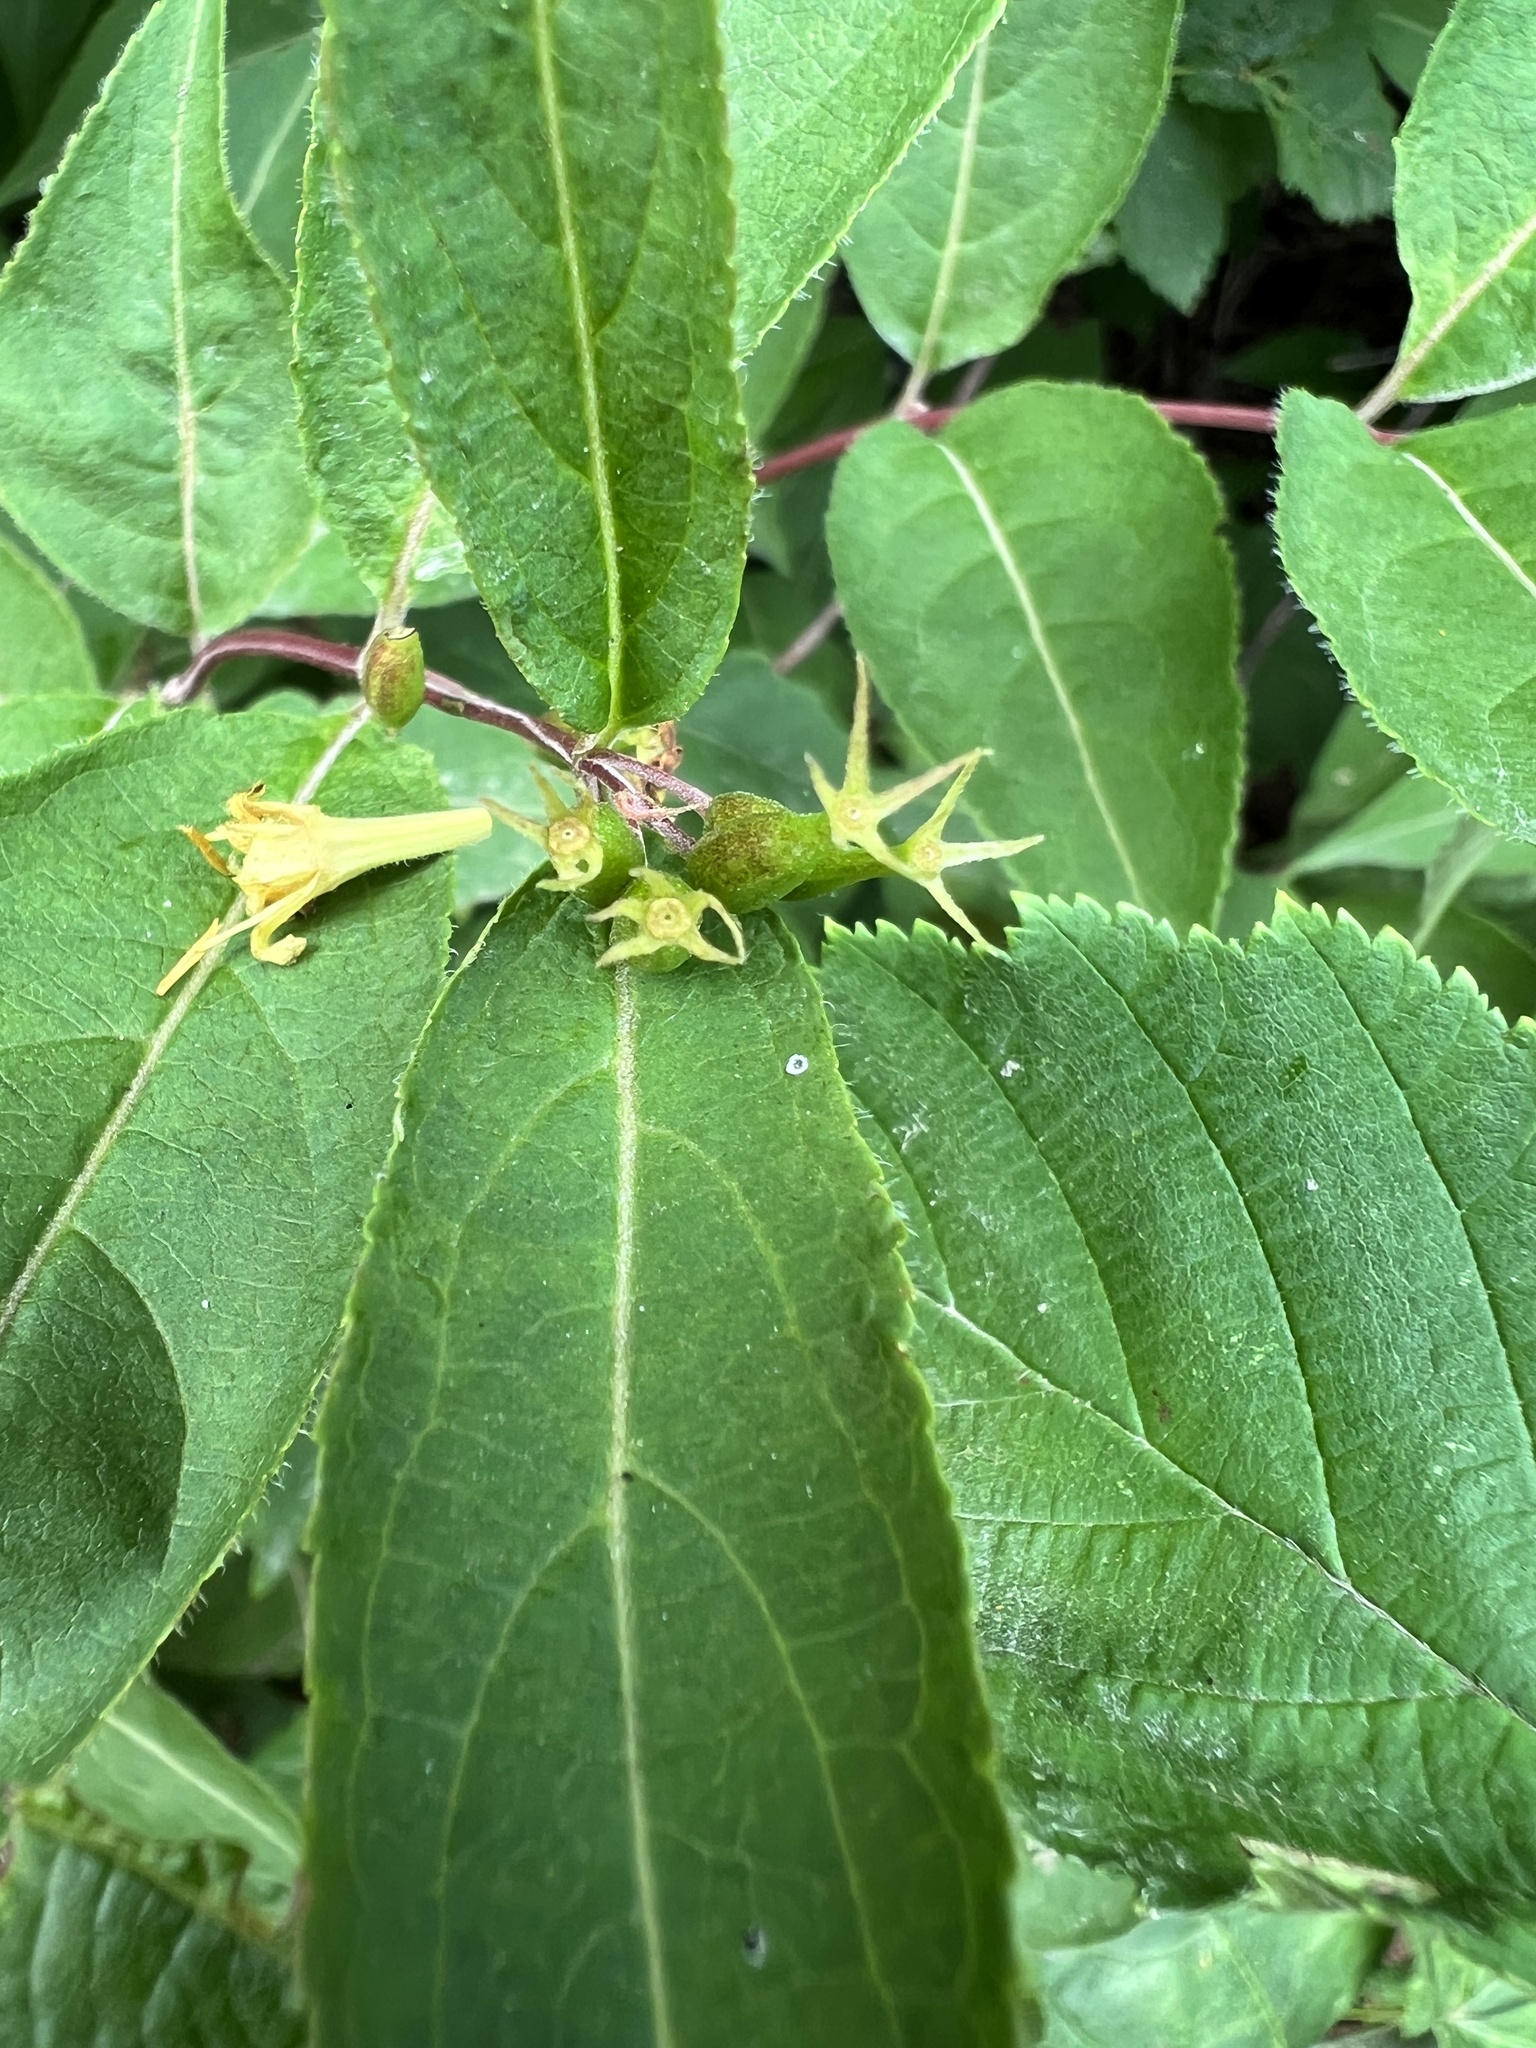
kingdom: Plantae
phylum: Tracheophyta
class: Magnoliopsida
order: Dipsacales
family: Caprifoliaceae
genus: Diervilla
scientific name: Diervilla lonicera
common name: Bush-honeysuckle
